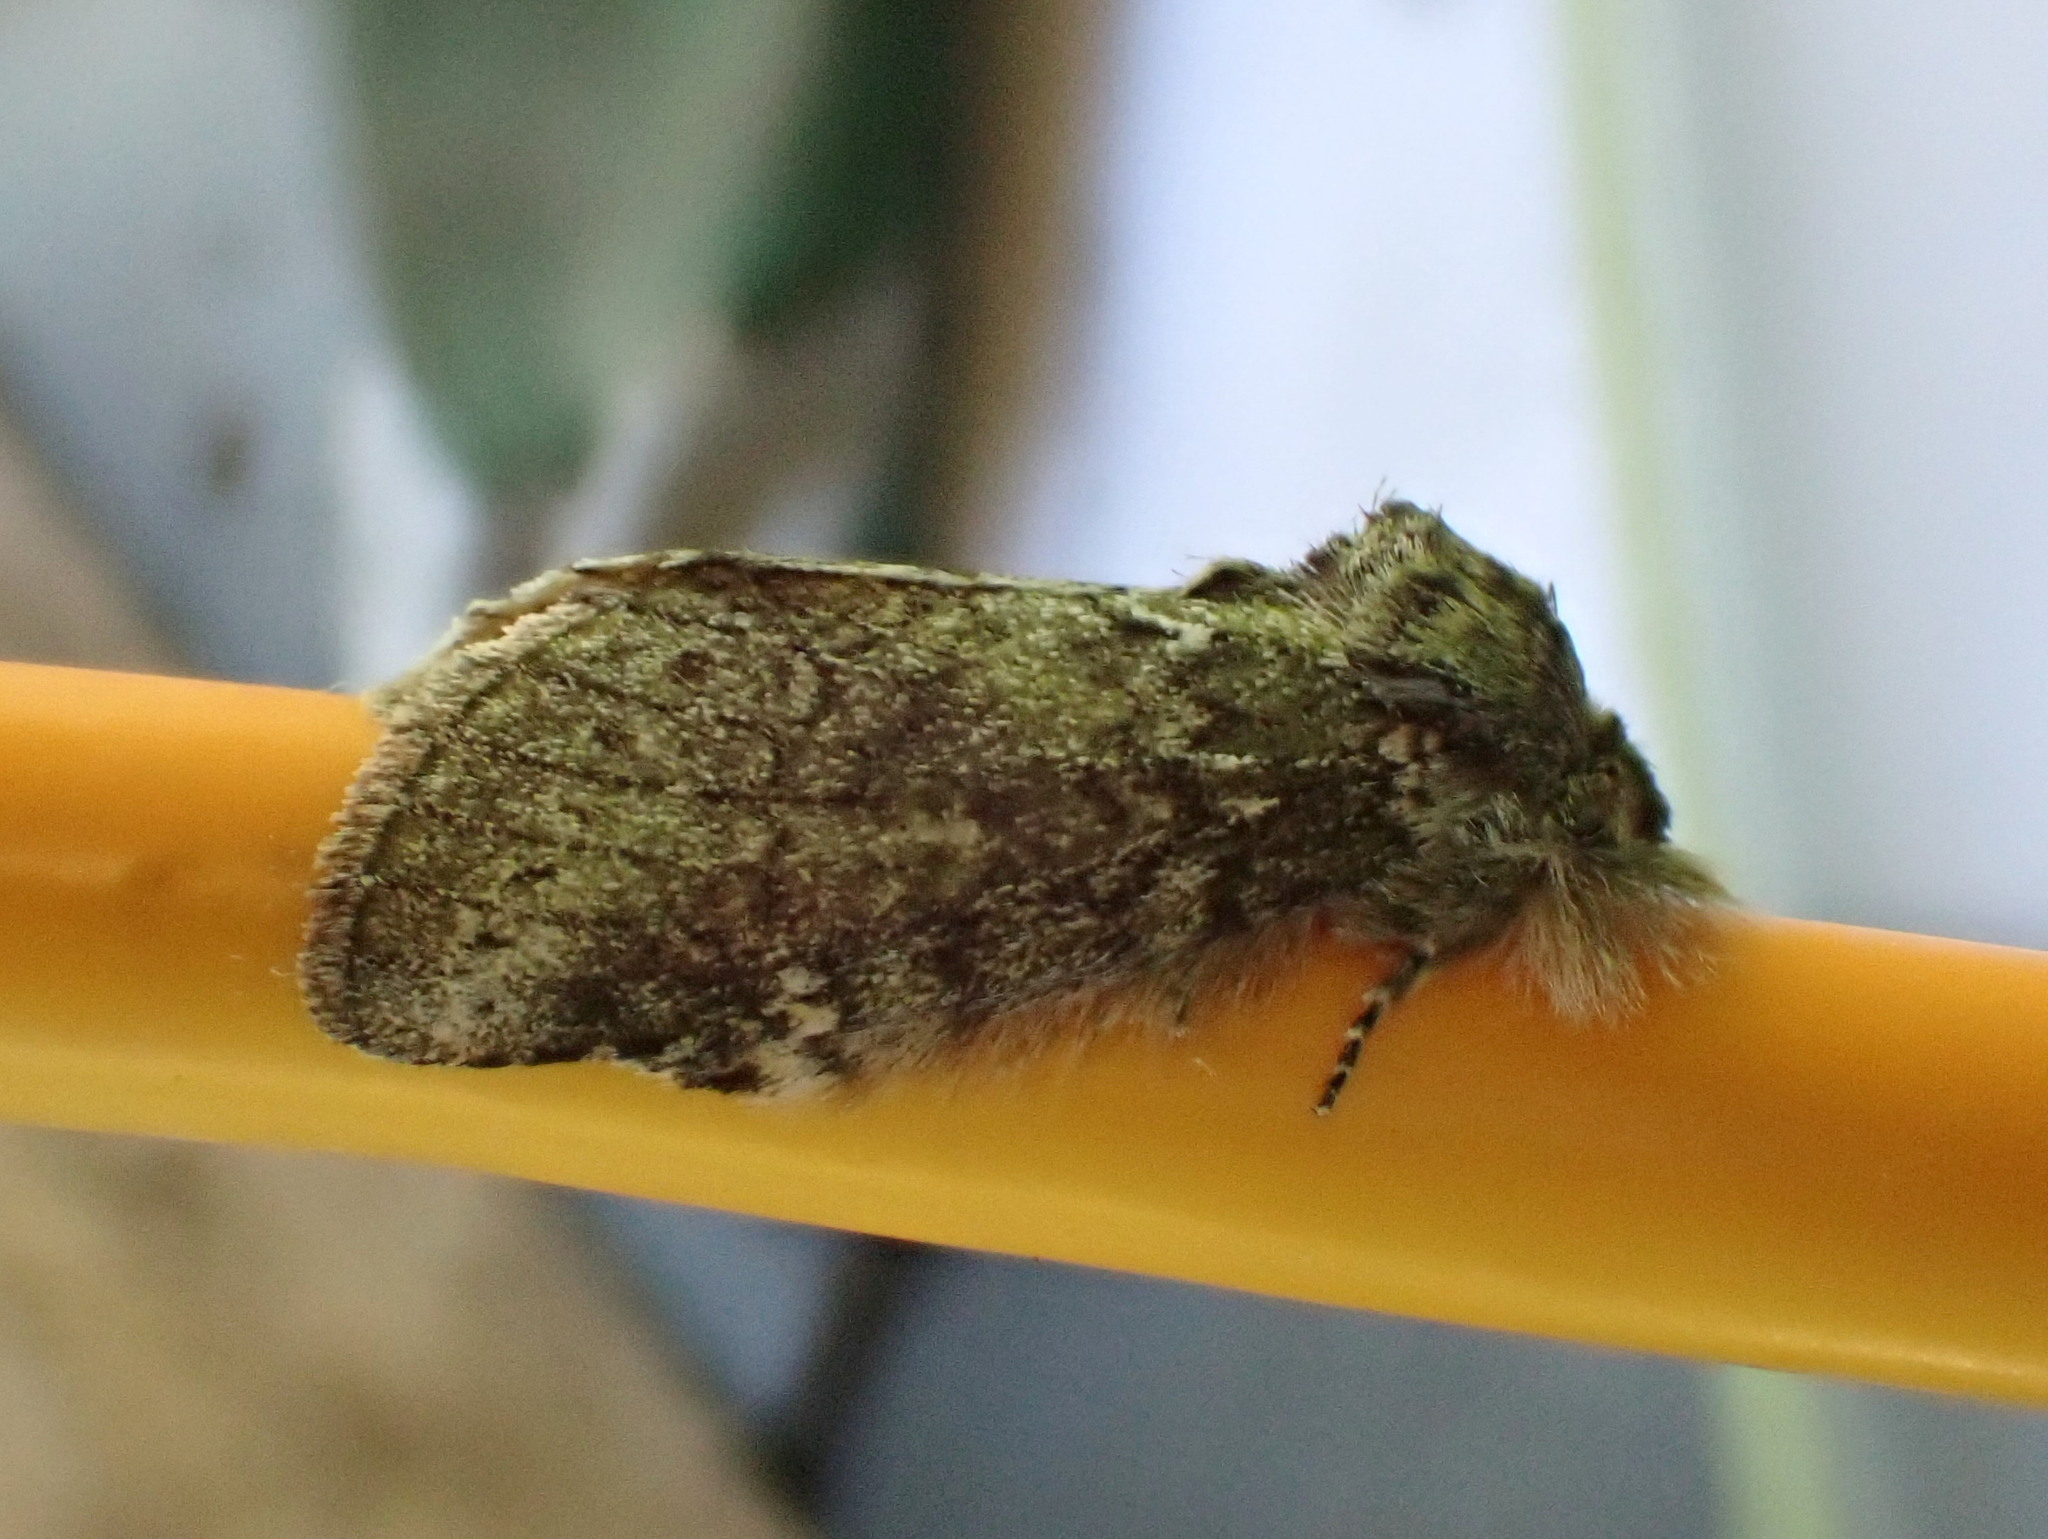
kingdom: Animalia
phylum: Arthropoda
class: Insecta
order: Lepidoptera
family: Notodontidae
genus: Disphragis
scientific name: Disphragis Cecrita guttivitta
